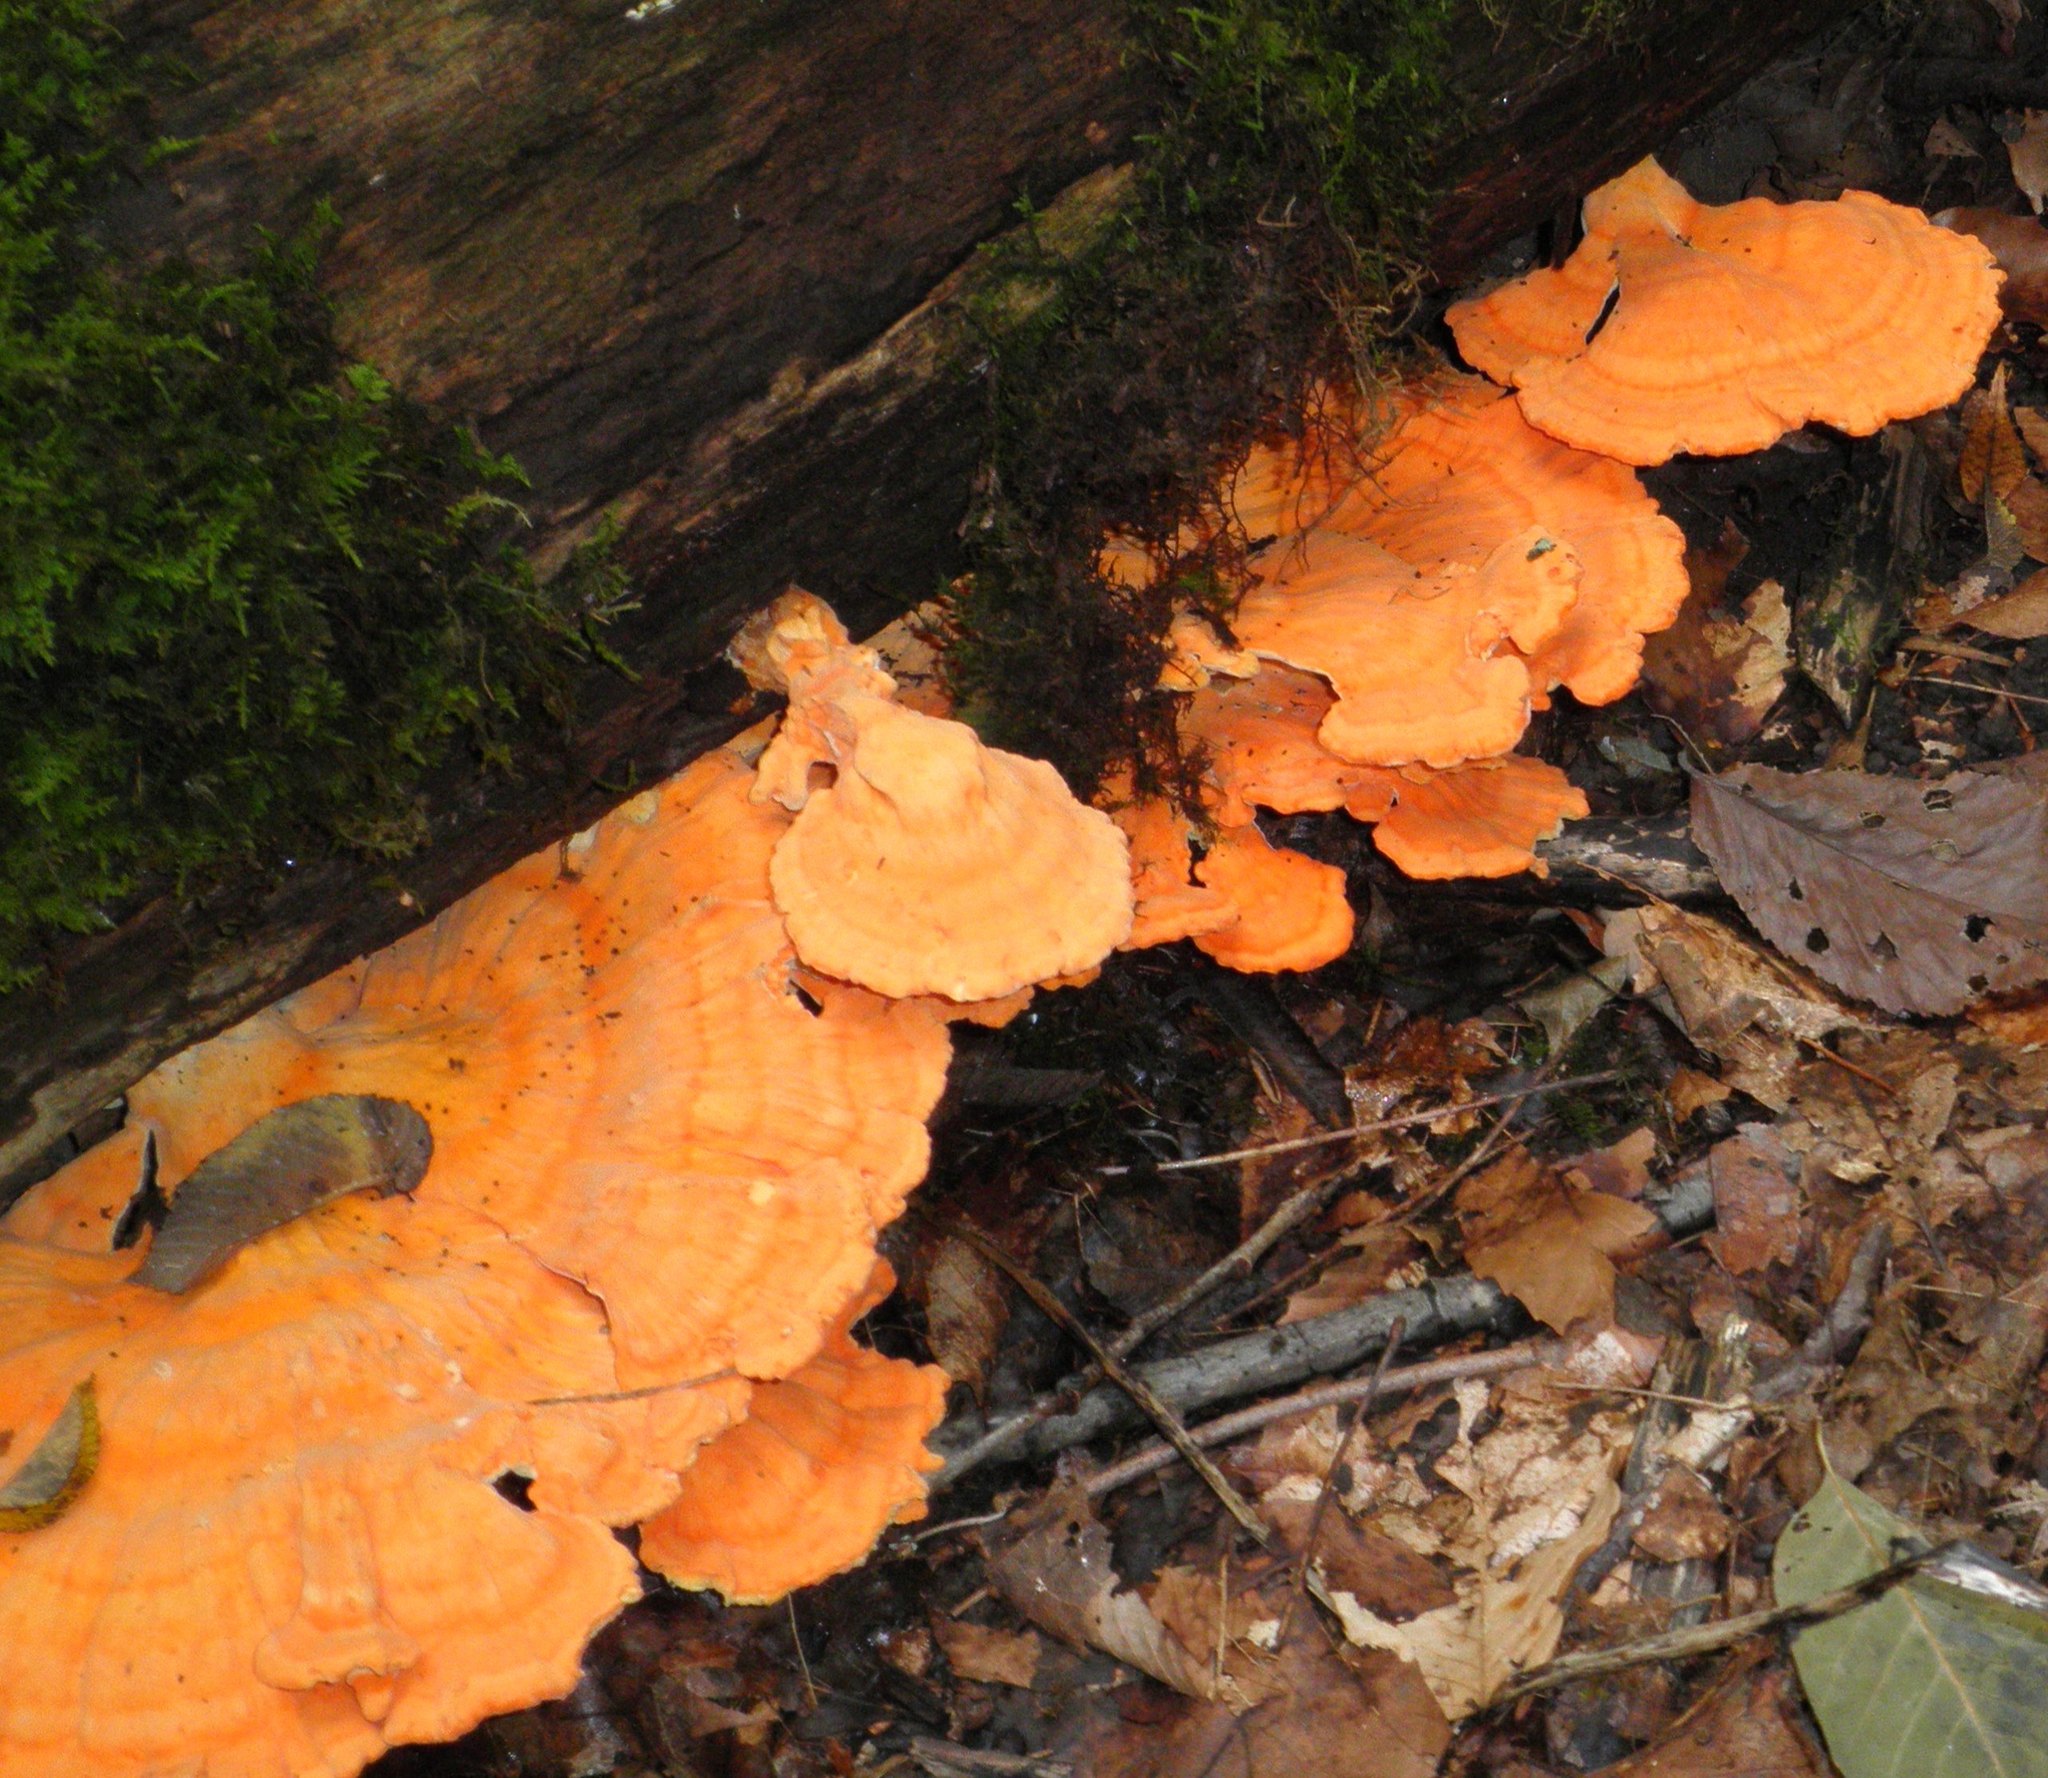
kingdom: Fungi
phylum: Basidiomycota
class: Agaricomycetes
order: Polyporales
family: Laetiporaceae
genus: Laetiporus
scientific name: Laetiporus sulphureus
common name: Chicken of the woods
